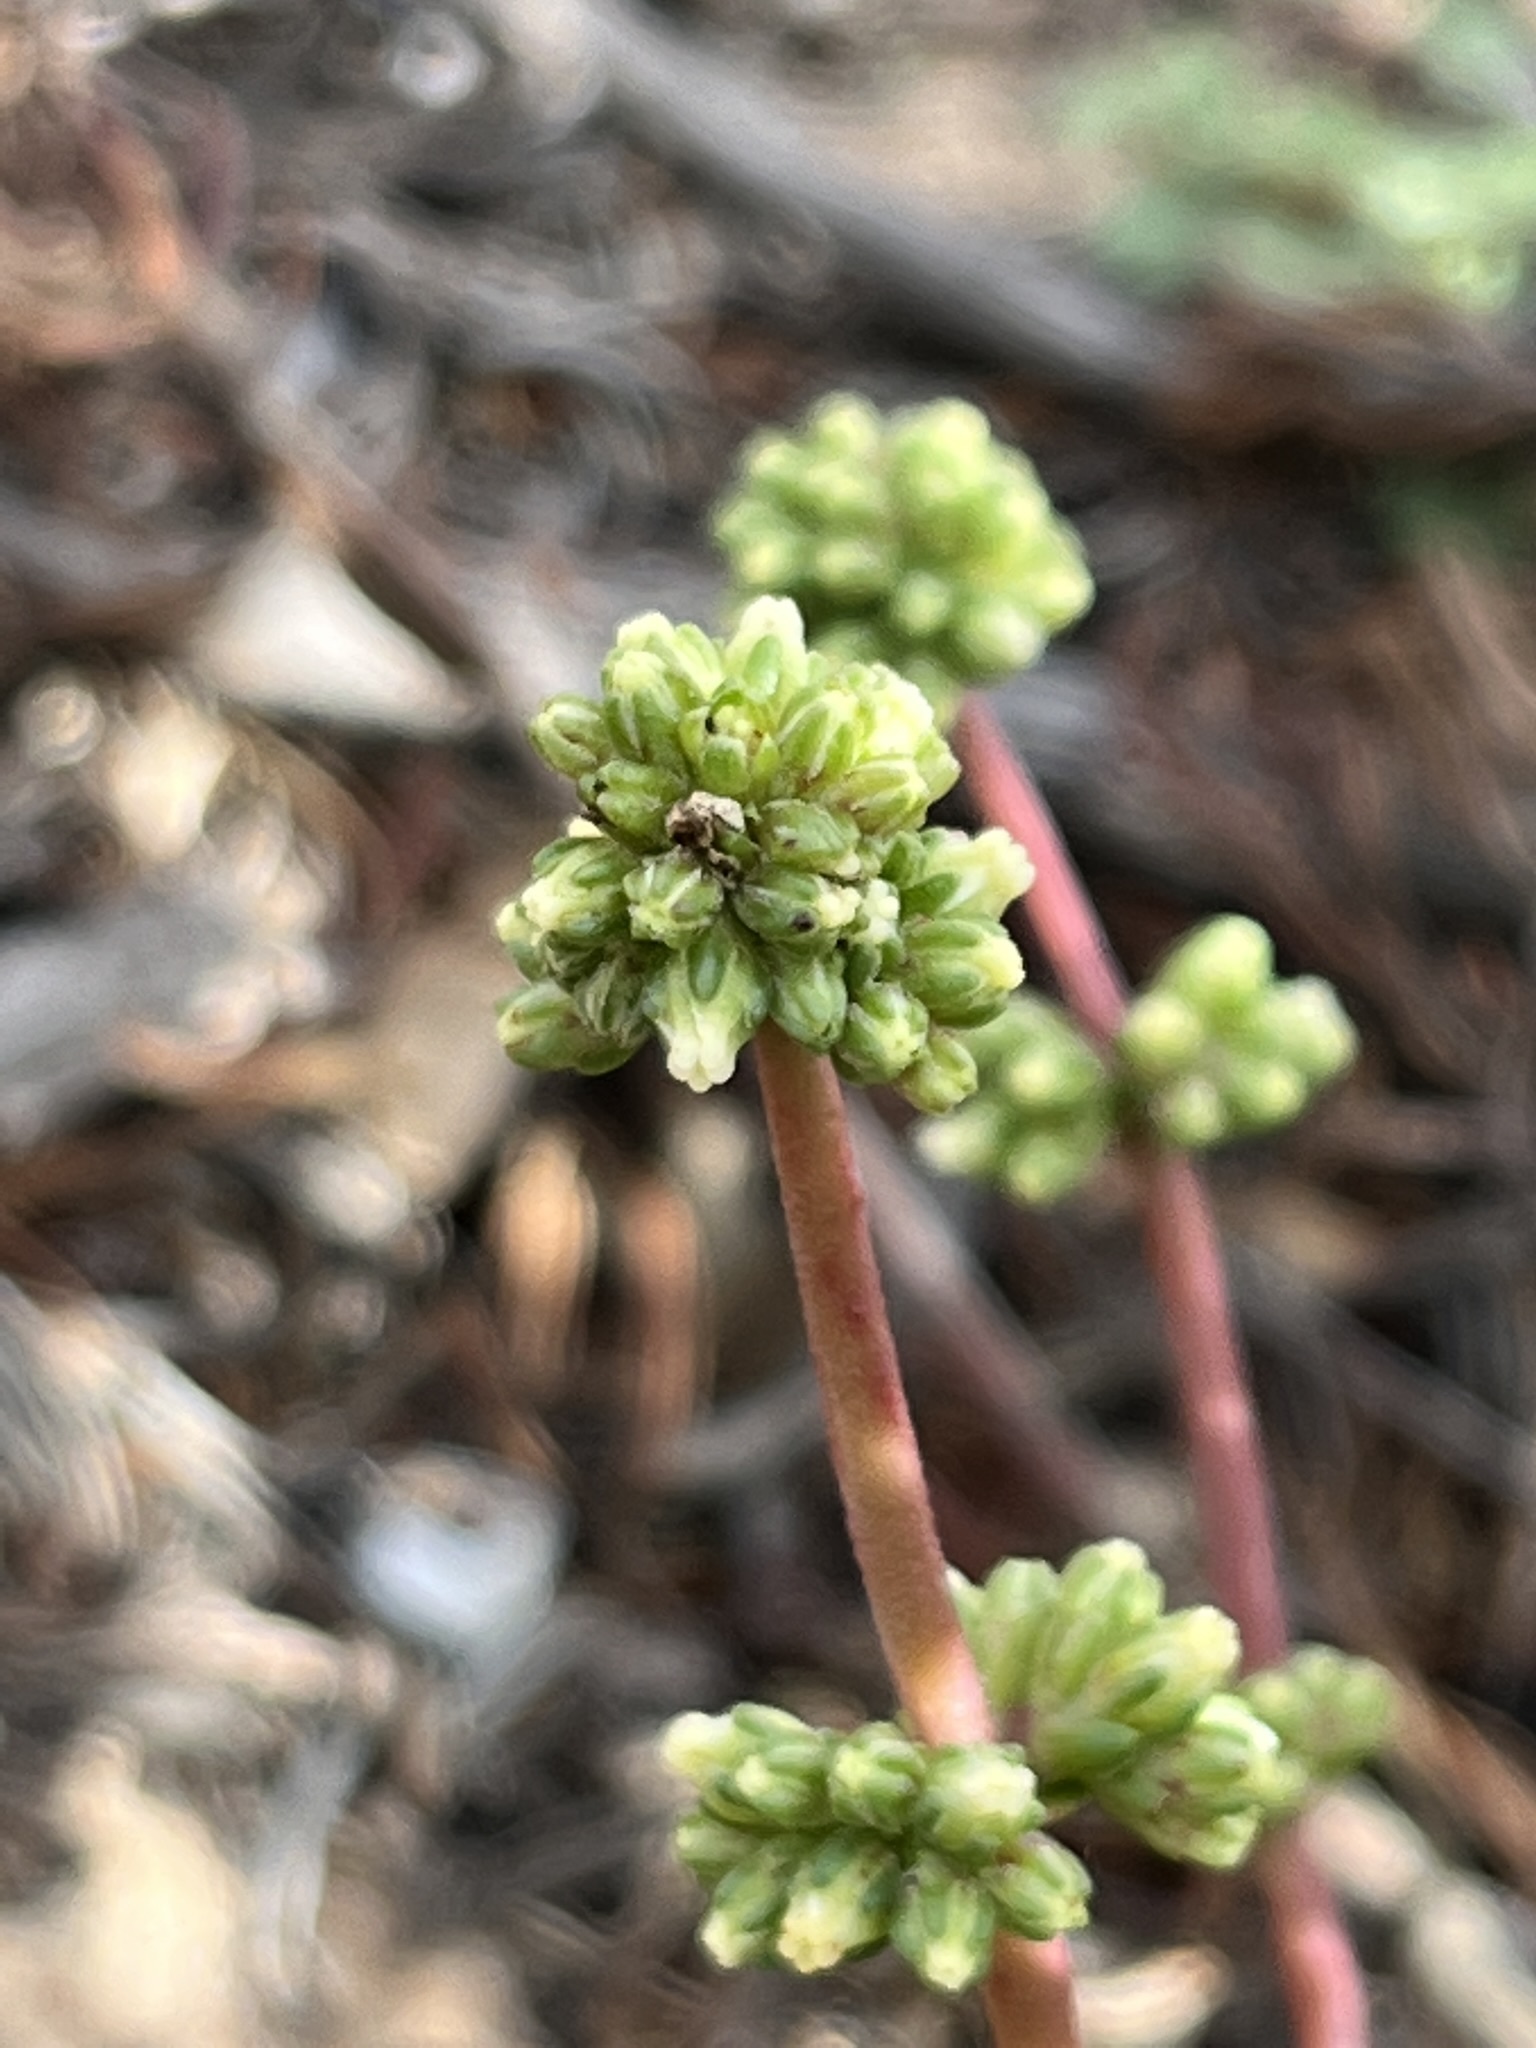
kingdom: Plantae
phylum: Tracheophyta
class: Magnoliopsida
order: Saxifragales
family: Crassulaceae
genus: Crassula
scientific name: Crassula clavata
